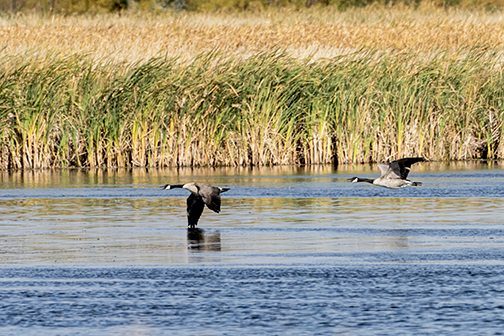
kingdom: Animalia
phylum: Chordata
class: Aves
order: Anseriformes
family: Anatidae
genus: Branta
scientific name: Branta canadensis
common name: Canada goose
